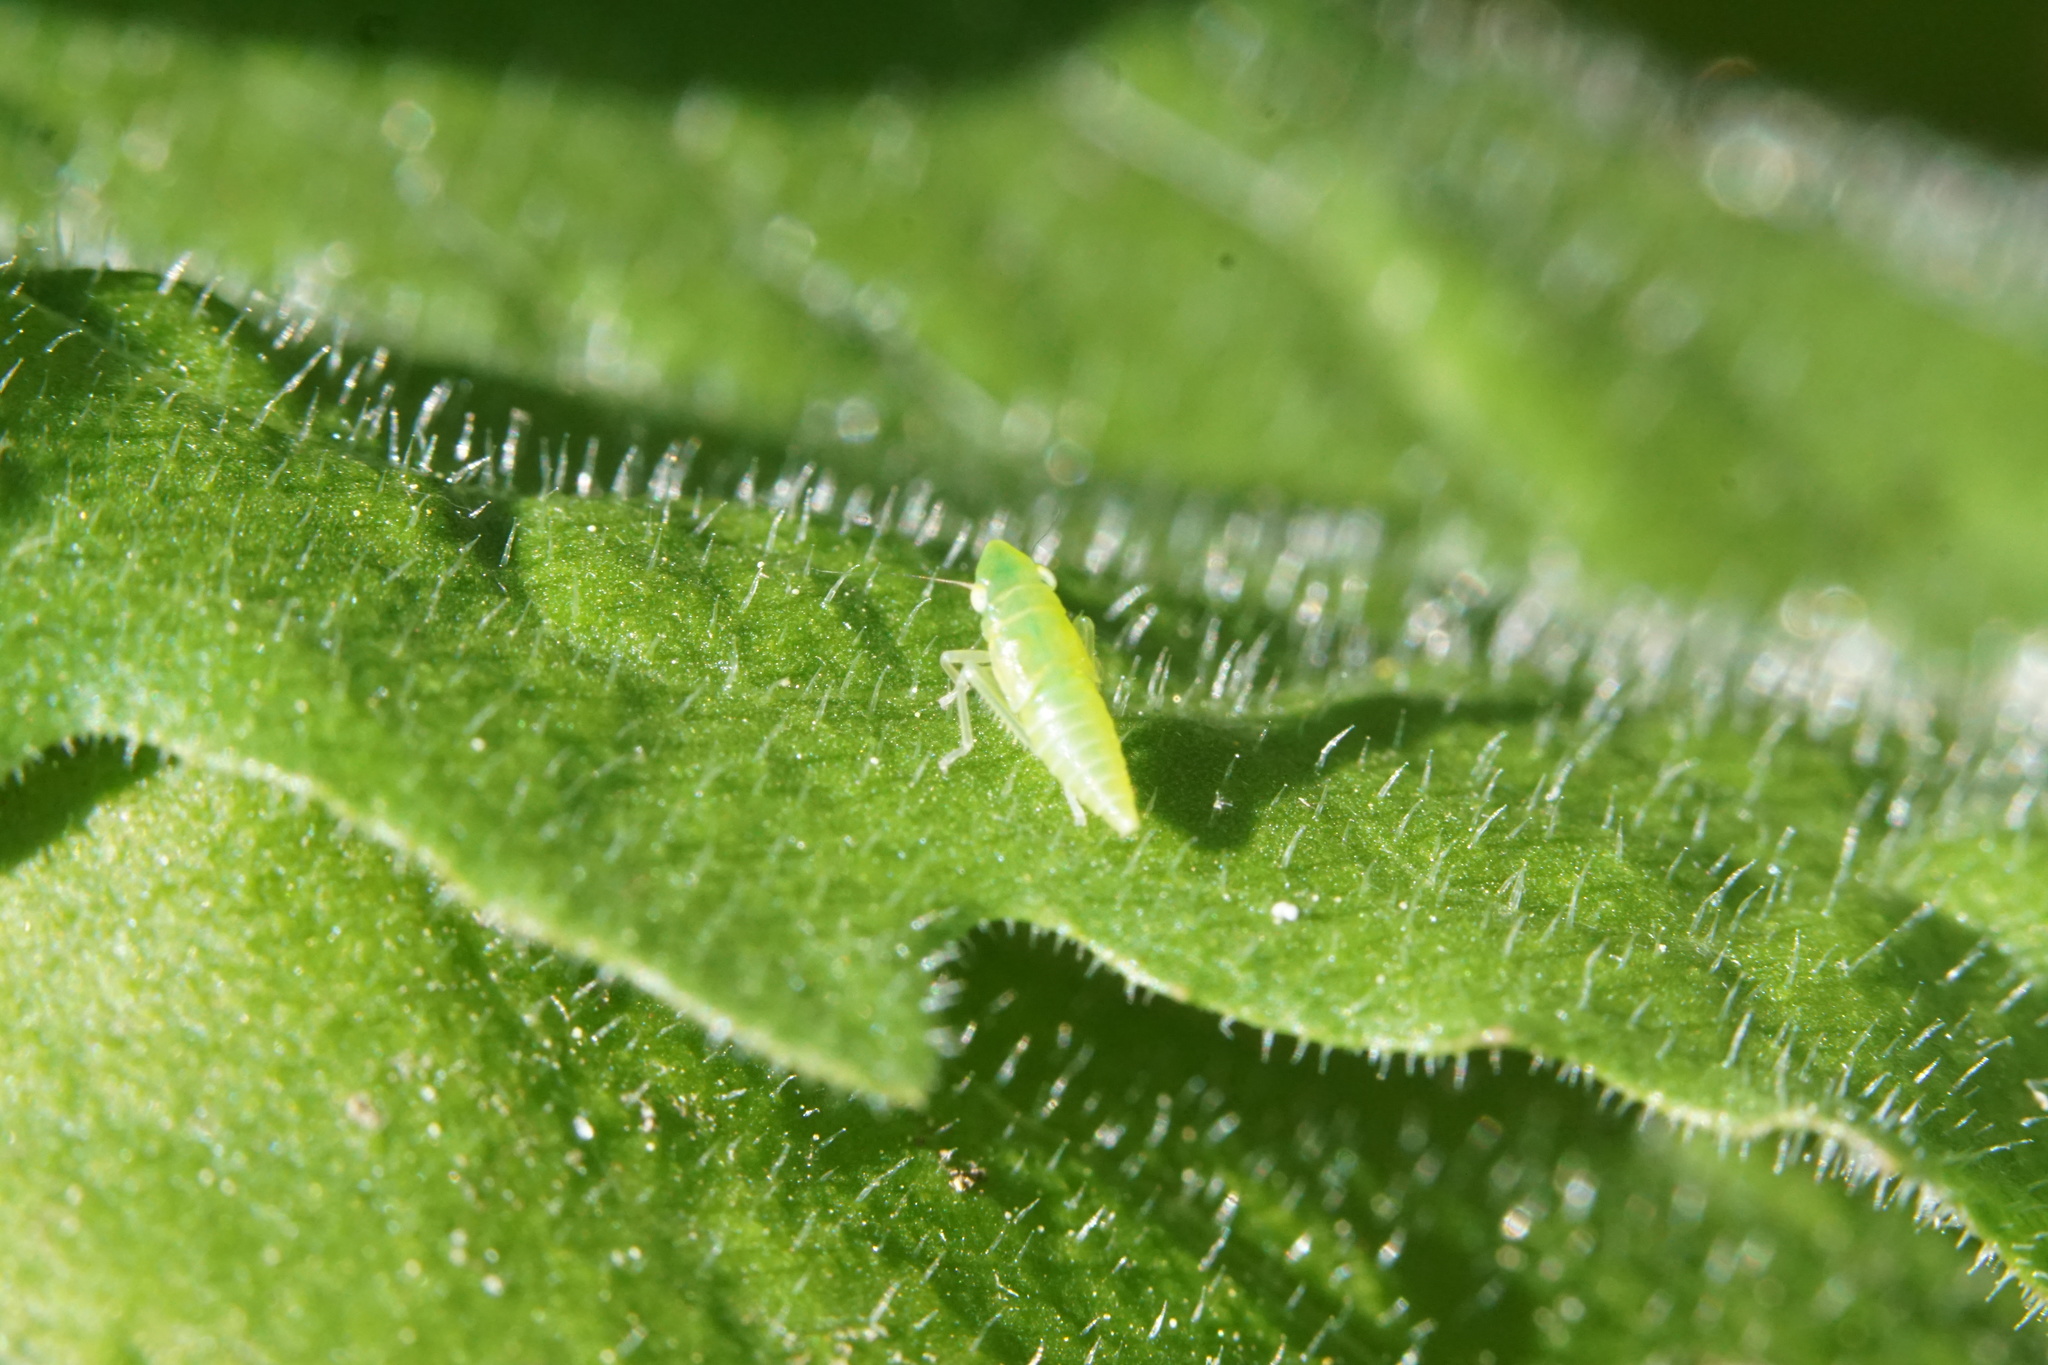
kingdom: Animalia
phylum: Arthropoda
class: Insecta
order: Hemiptera
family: Cicadellidae
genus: Pagaronia
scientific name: Pagaronia minor
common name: Leafhopper
